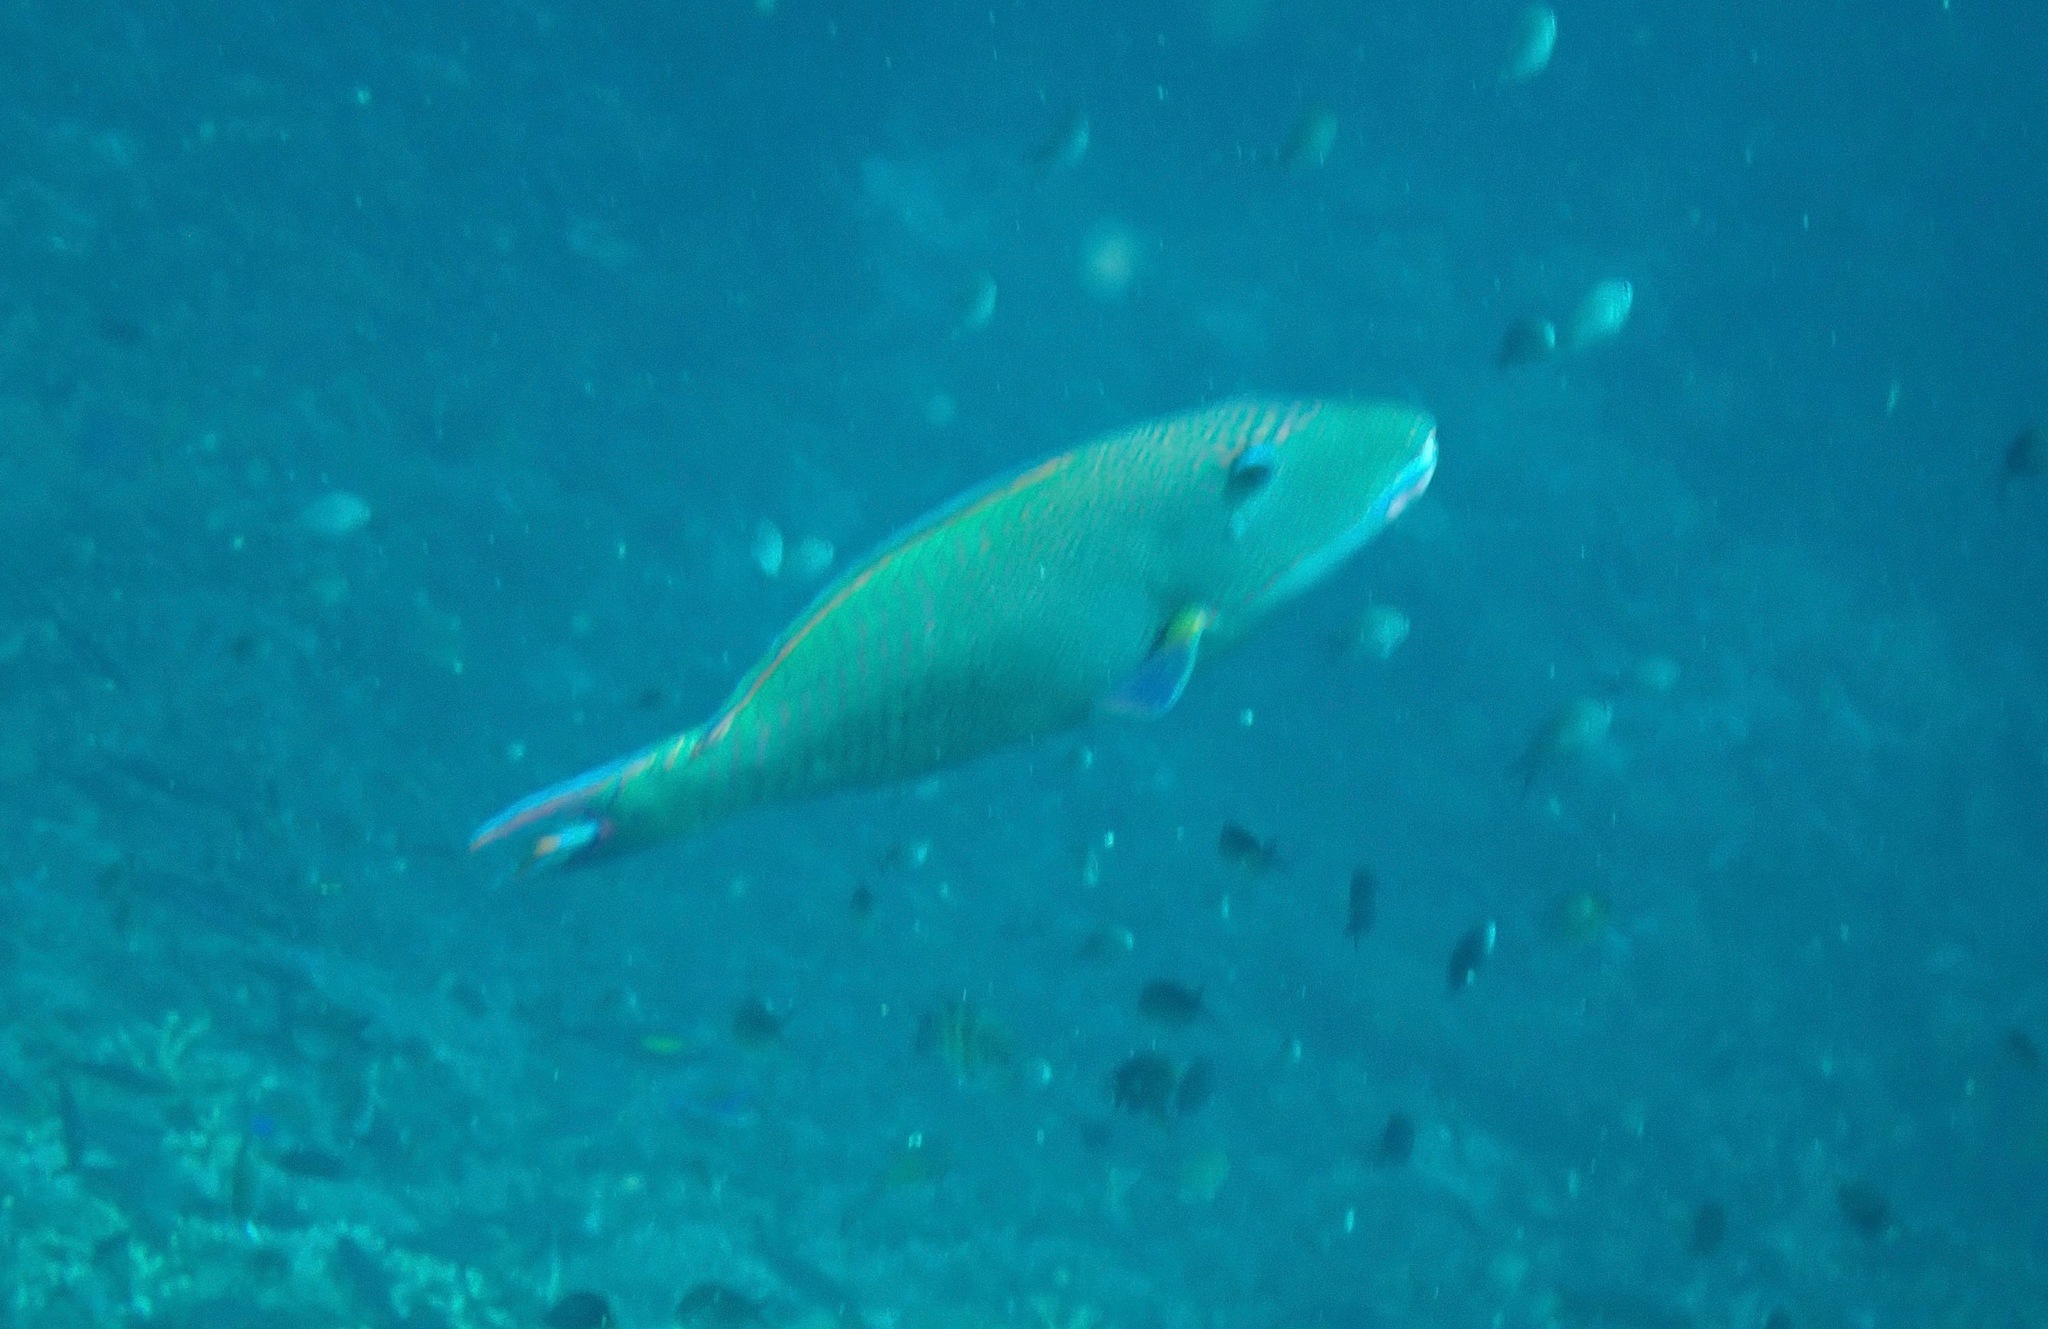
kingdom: Animalia
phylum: Chordata
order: Perciformes
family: Scaridae
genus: Cetoscarus
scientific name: Cetoscarus ocellatus
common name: Bicolor parrotfish
